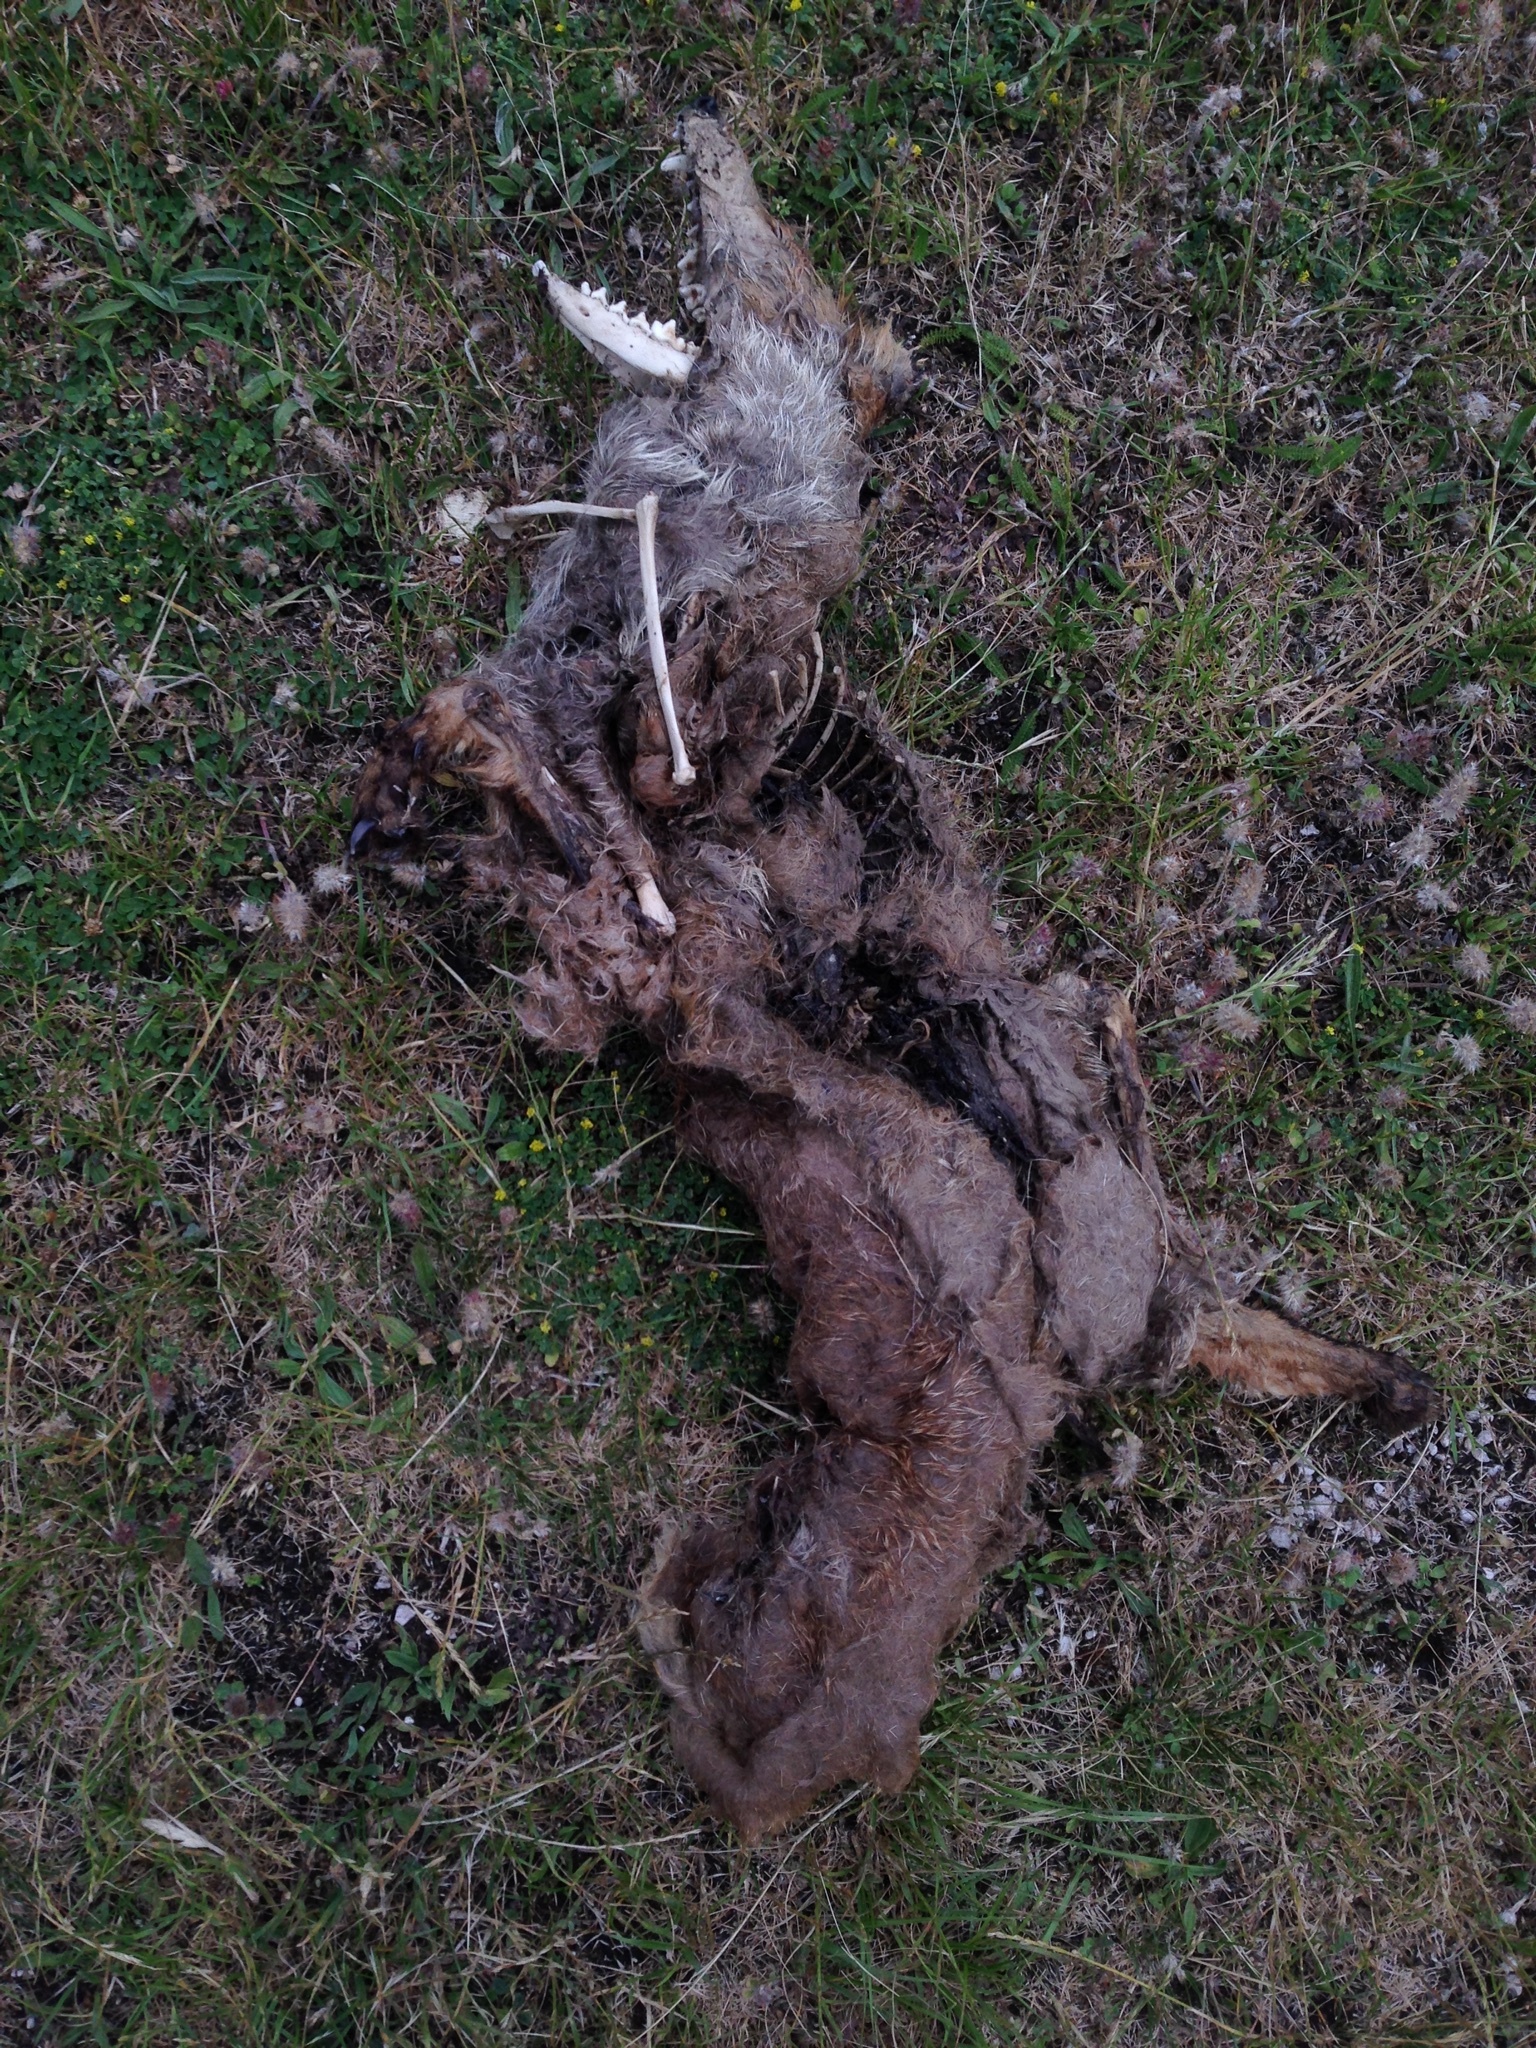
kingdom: Animalia
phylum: Chordata
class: Mammalia
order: Carnivora
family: Canidae
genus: Vulpes
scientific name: Vulpes vulpes
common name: Red fox
